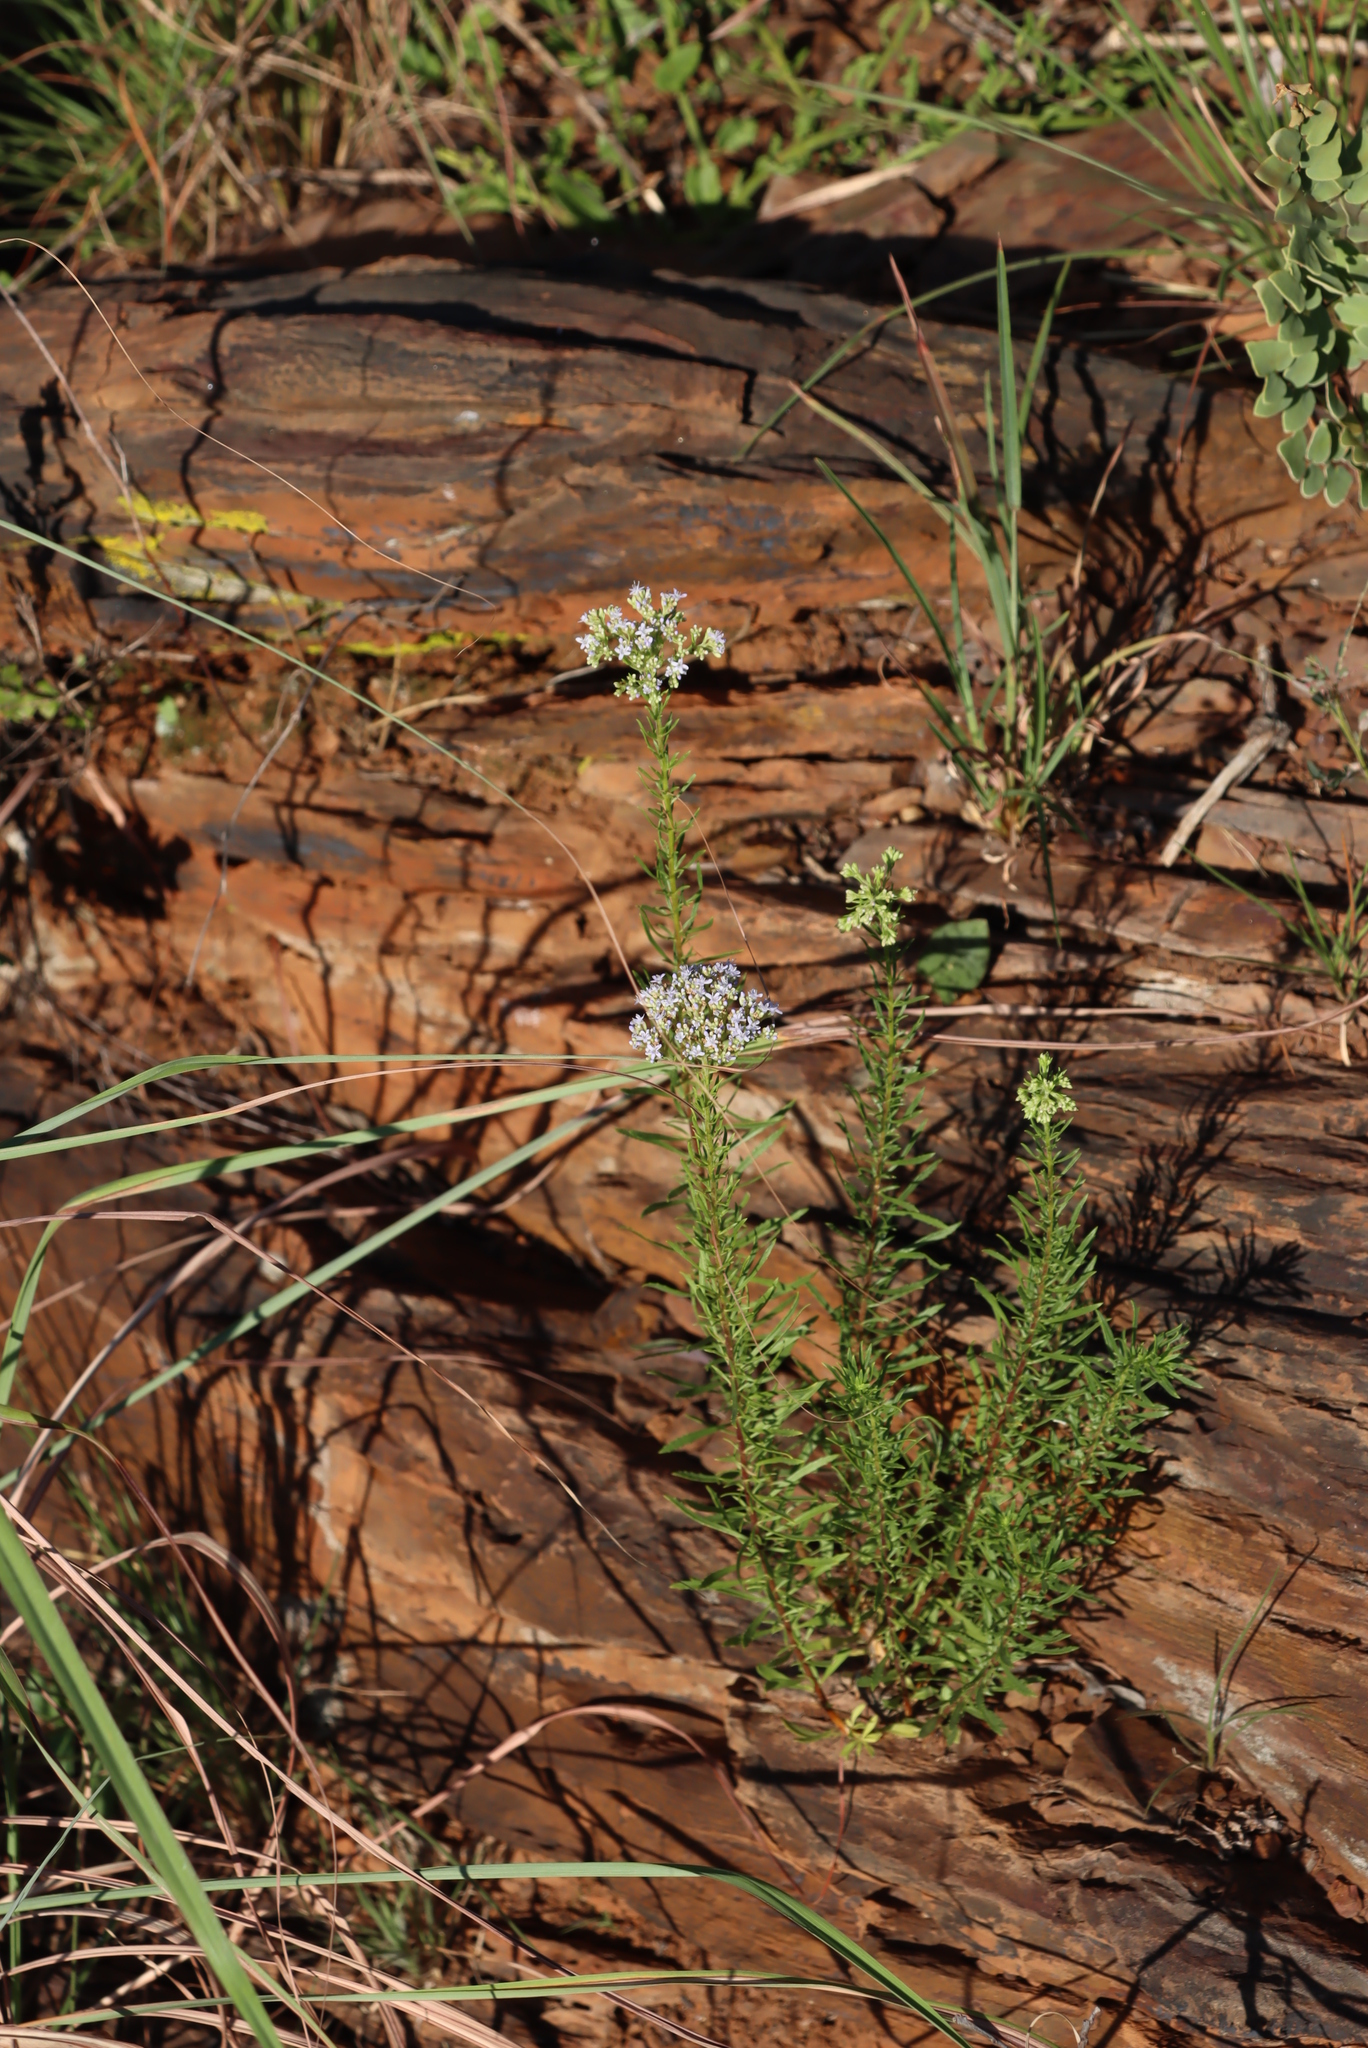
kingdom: Plantae
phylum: Tracheophyta
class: Magnoliopsida
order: Lamiales
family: Scrophulariaceae
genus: Tetraselago
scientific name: Tetraselago natalensis
